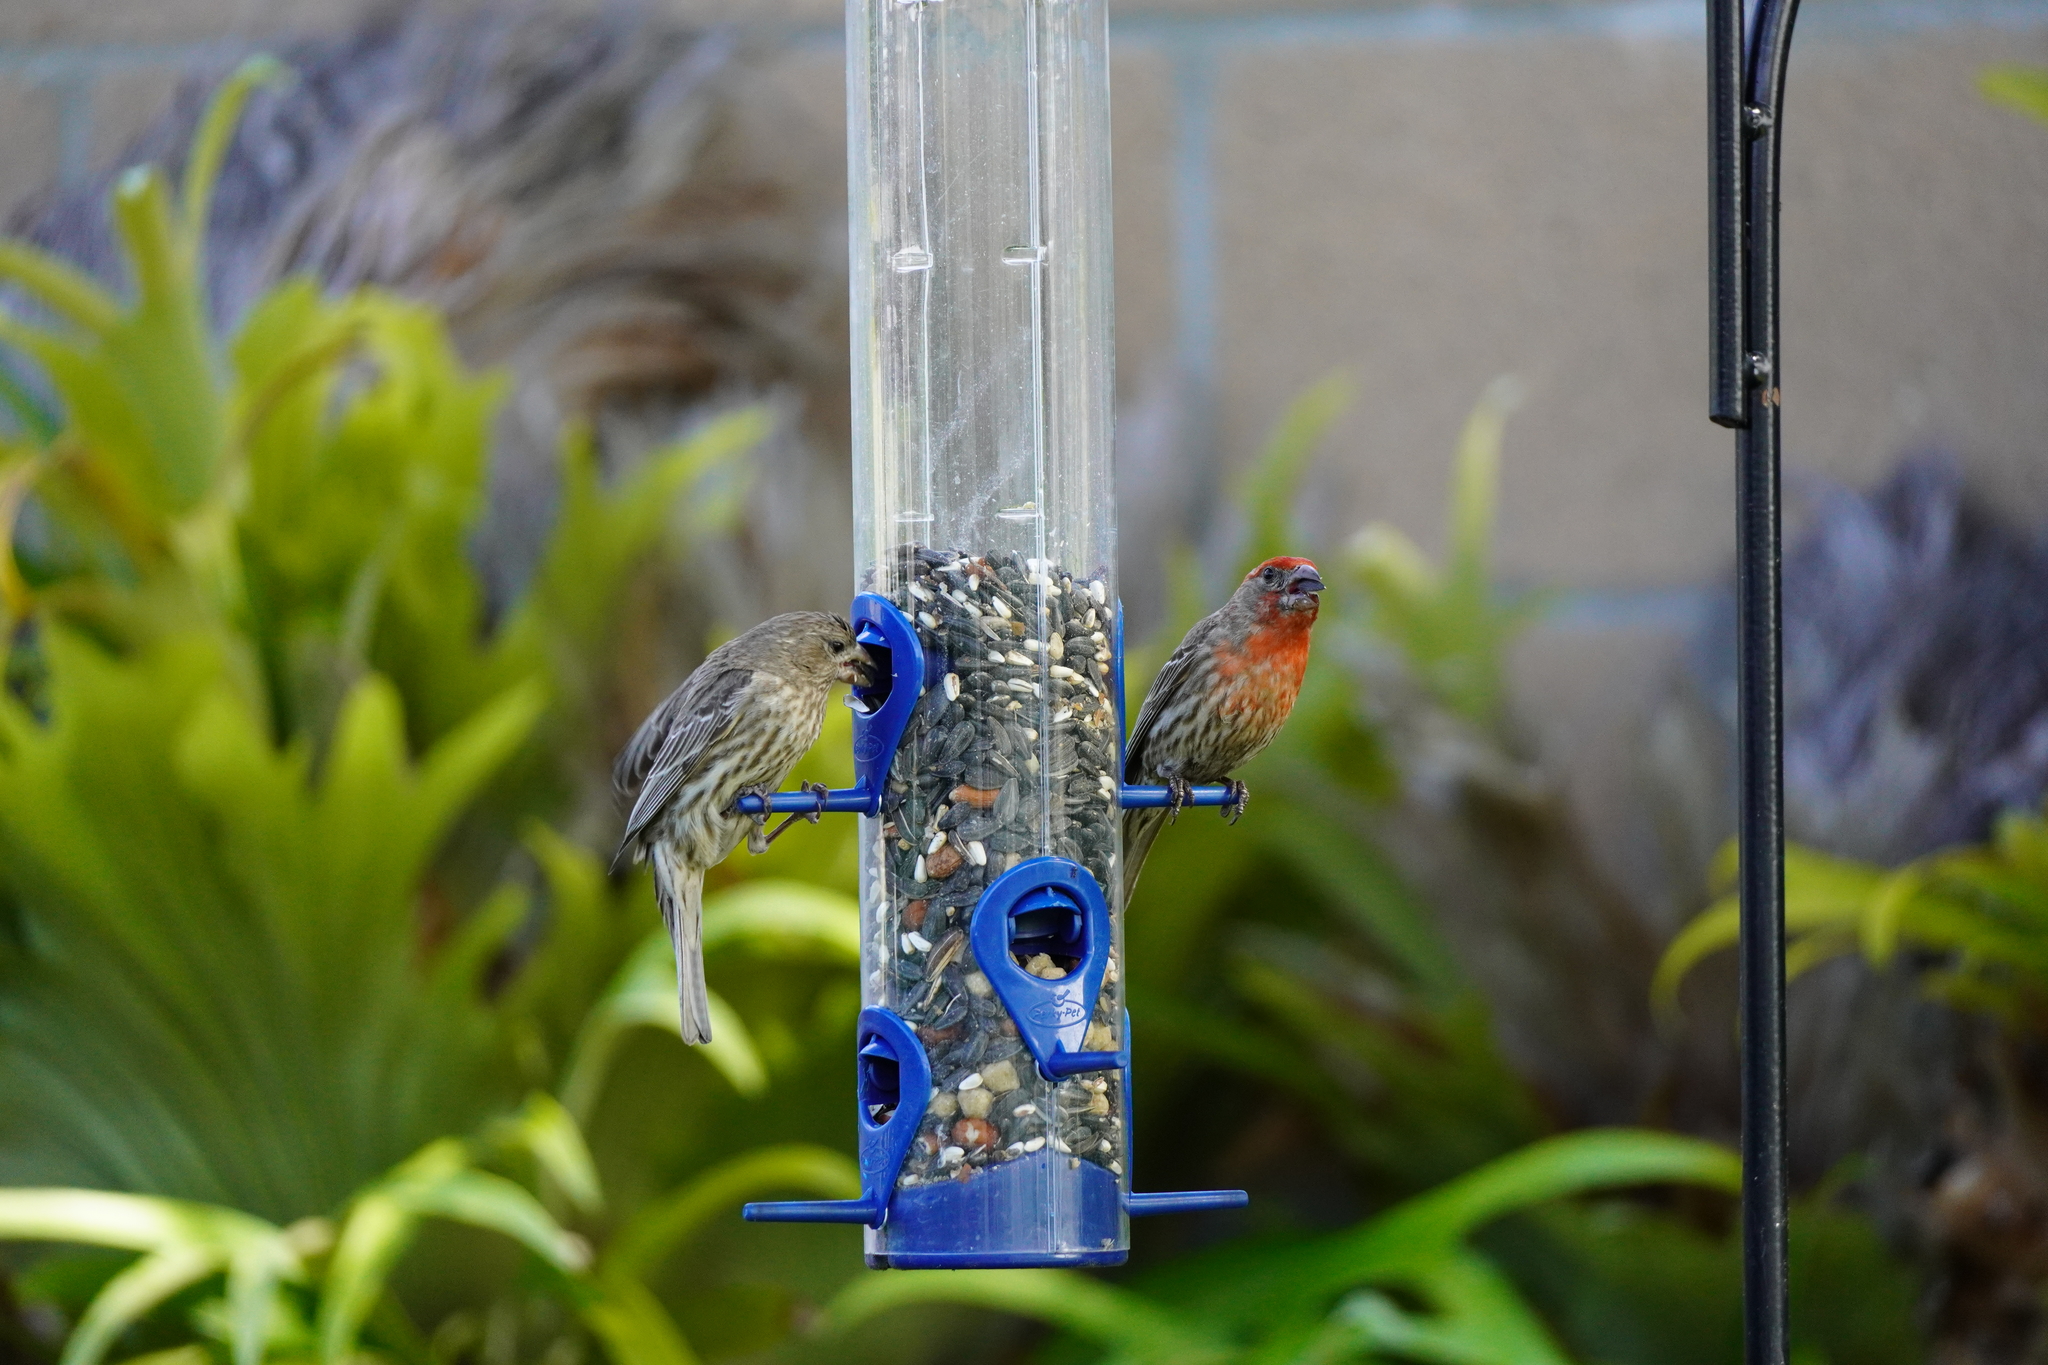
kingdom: Animalia
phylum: Chordata
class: Aves
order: Passeriformes
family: Fringillidae
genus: Haemorhous
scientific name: Haemorhous mexicanus
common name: House finch
